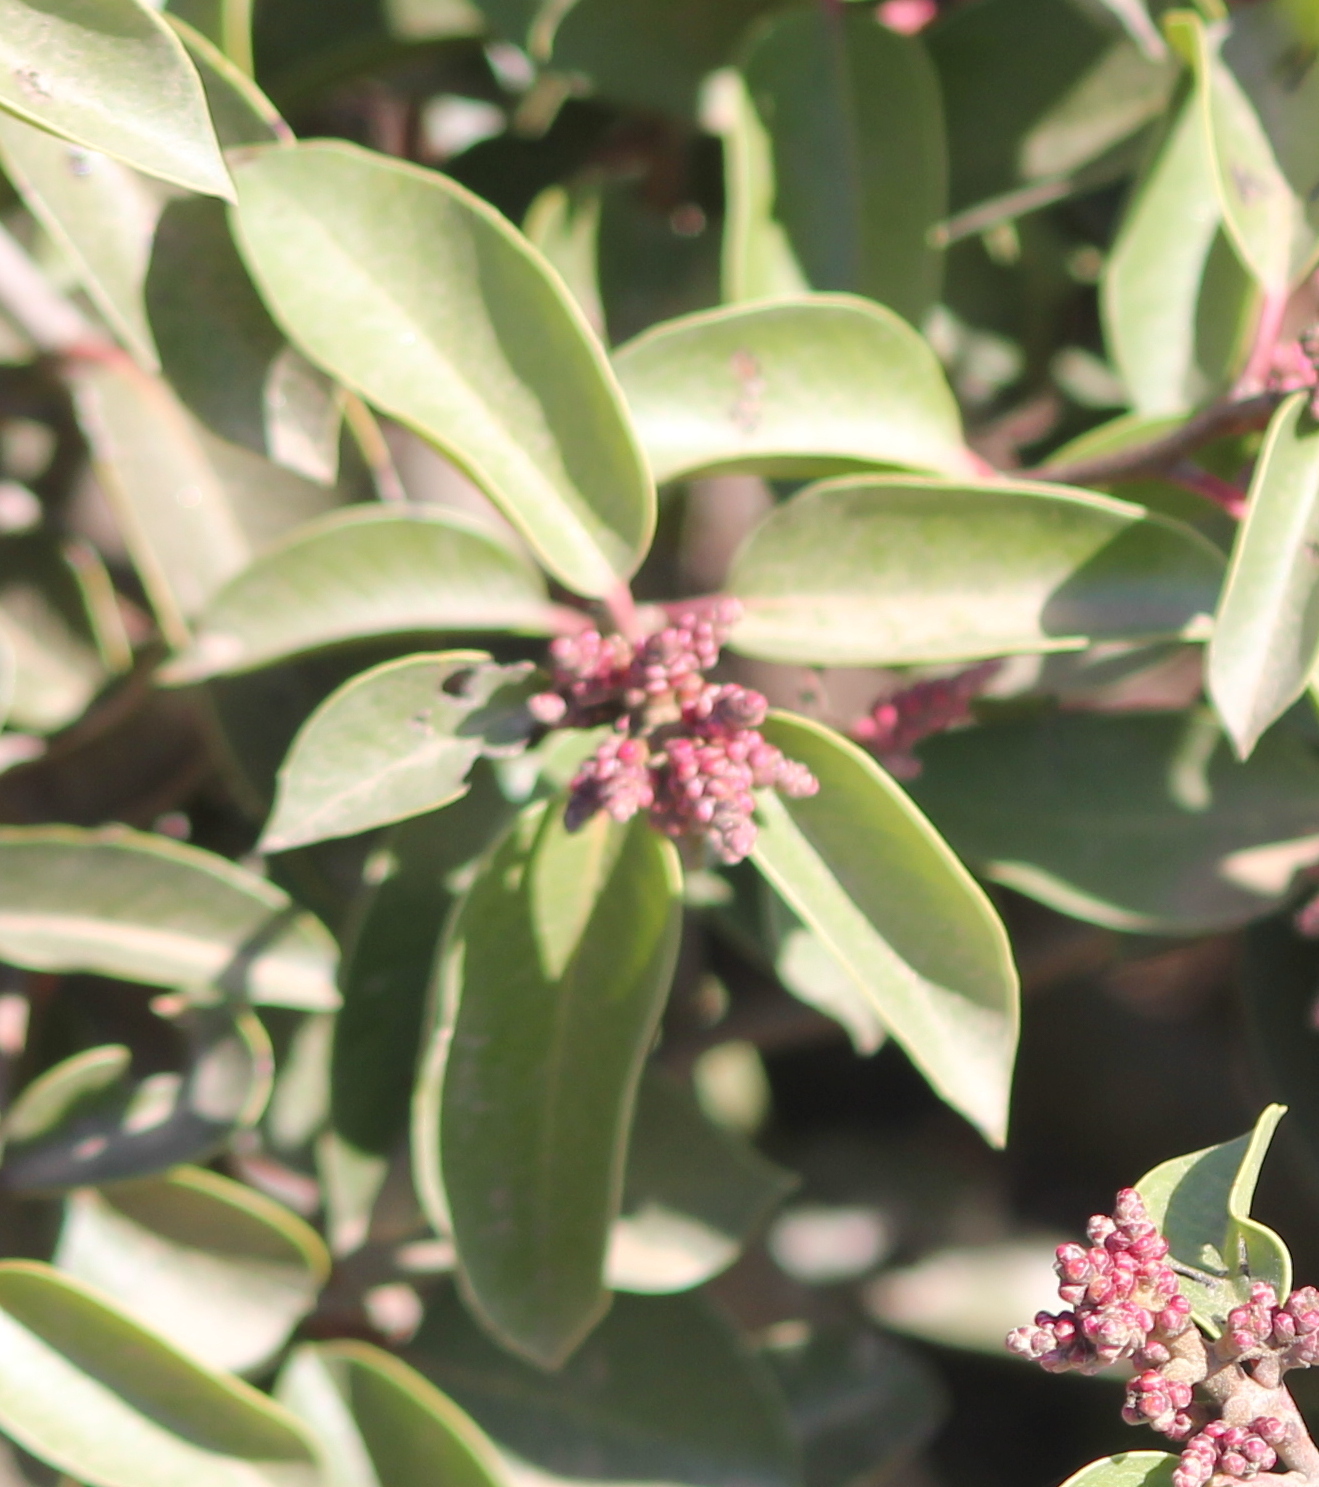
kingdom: Plantae
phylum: Tracheophyta
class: Magnoliopsida
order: Sapindales
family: Anacardiaceae
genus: Rhus
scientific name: Rhus ovata
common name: Sugar sumac
